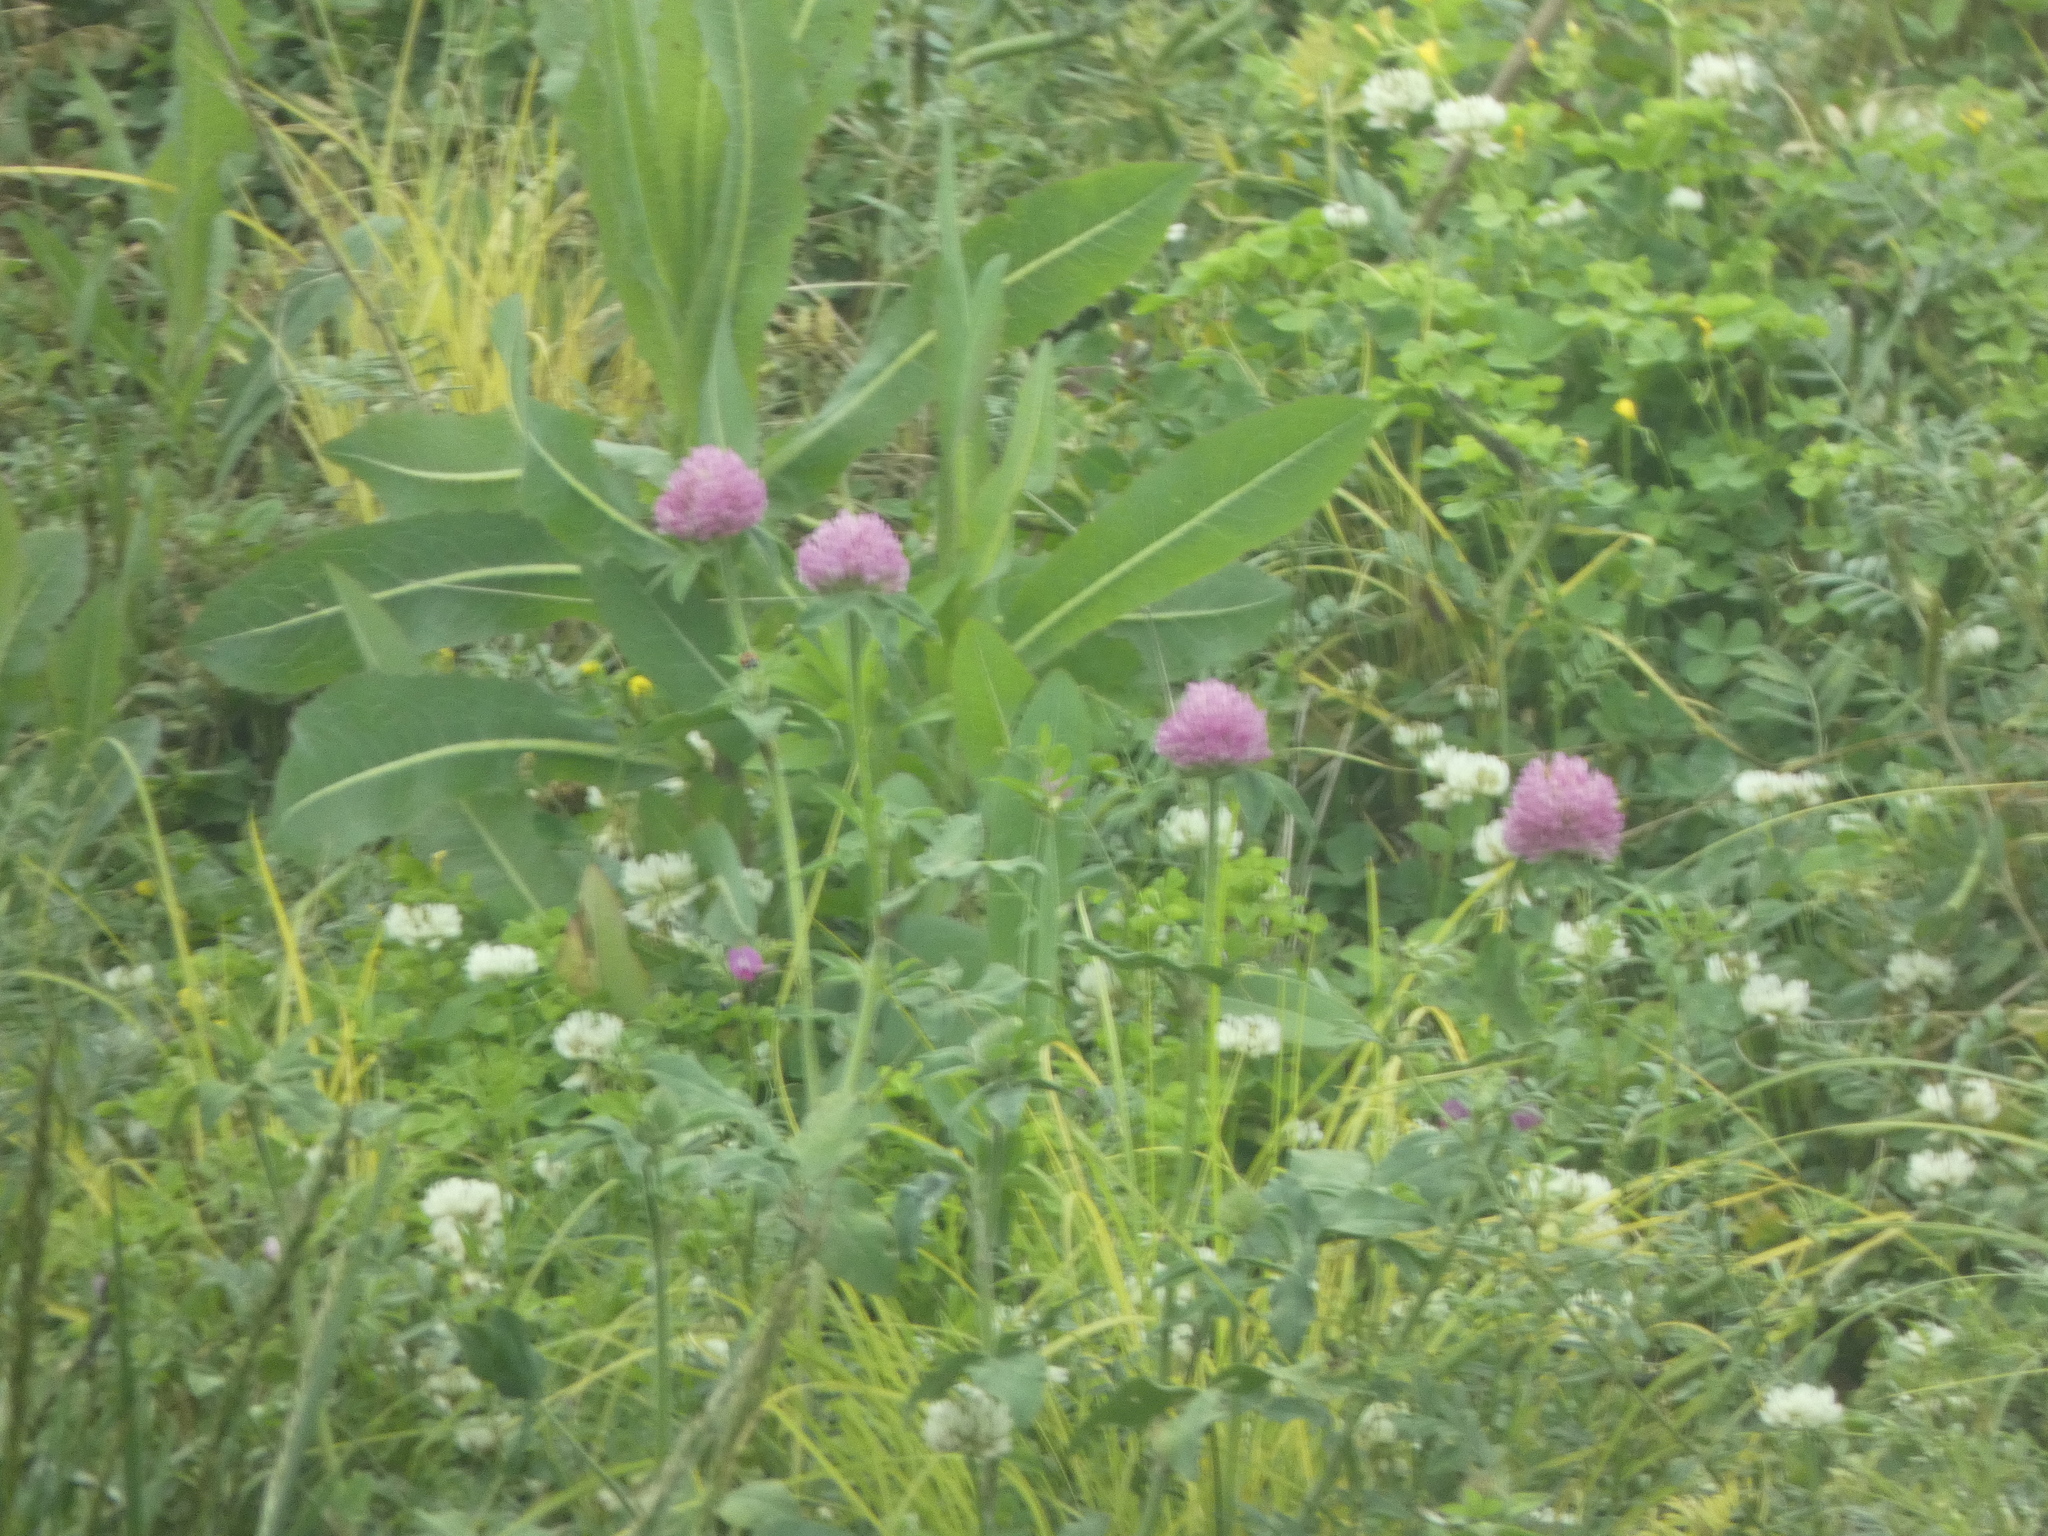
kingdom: Plantae
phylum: Tracheophyta
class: Magnoliopsida
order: Fabales
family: Fabaceae
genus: Trifolium
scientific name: Trifolium pratense
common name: Red clover
